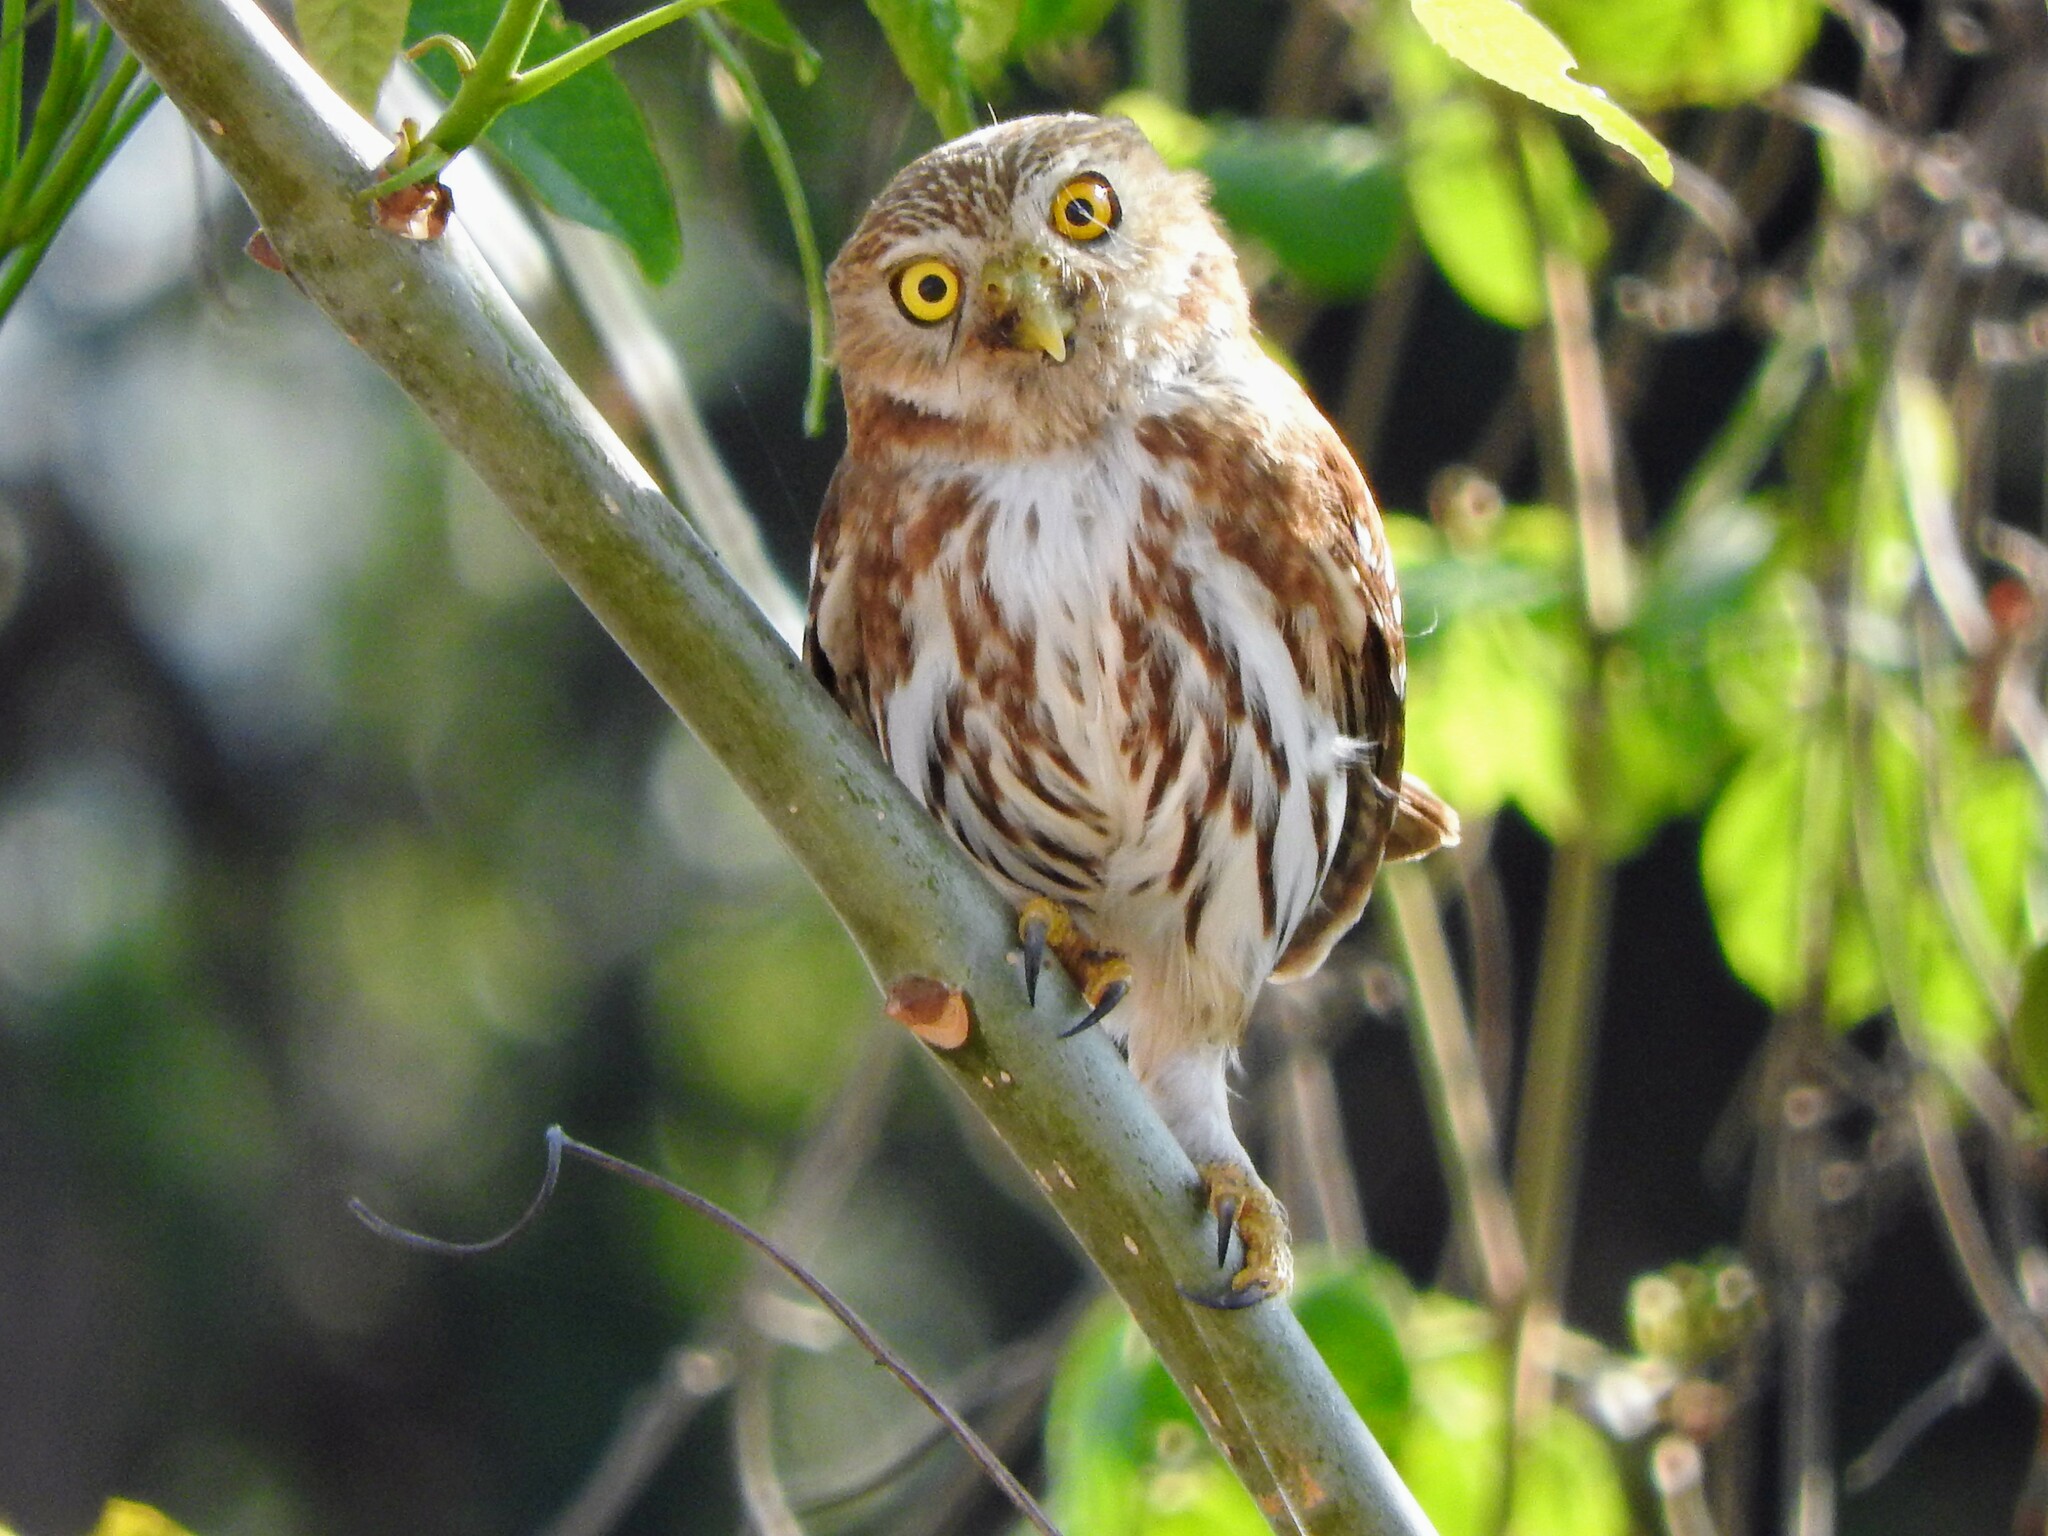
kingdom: Animalia
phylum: Chordata
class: Aves
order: Strigiformes
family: Strigidae
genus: Glaucidium
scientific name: Glaucidium brasilianum
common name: Ferruginous pygmy-owl
